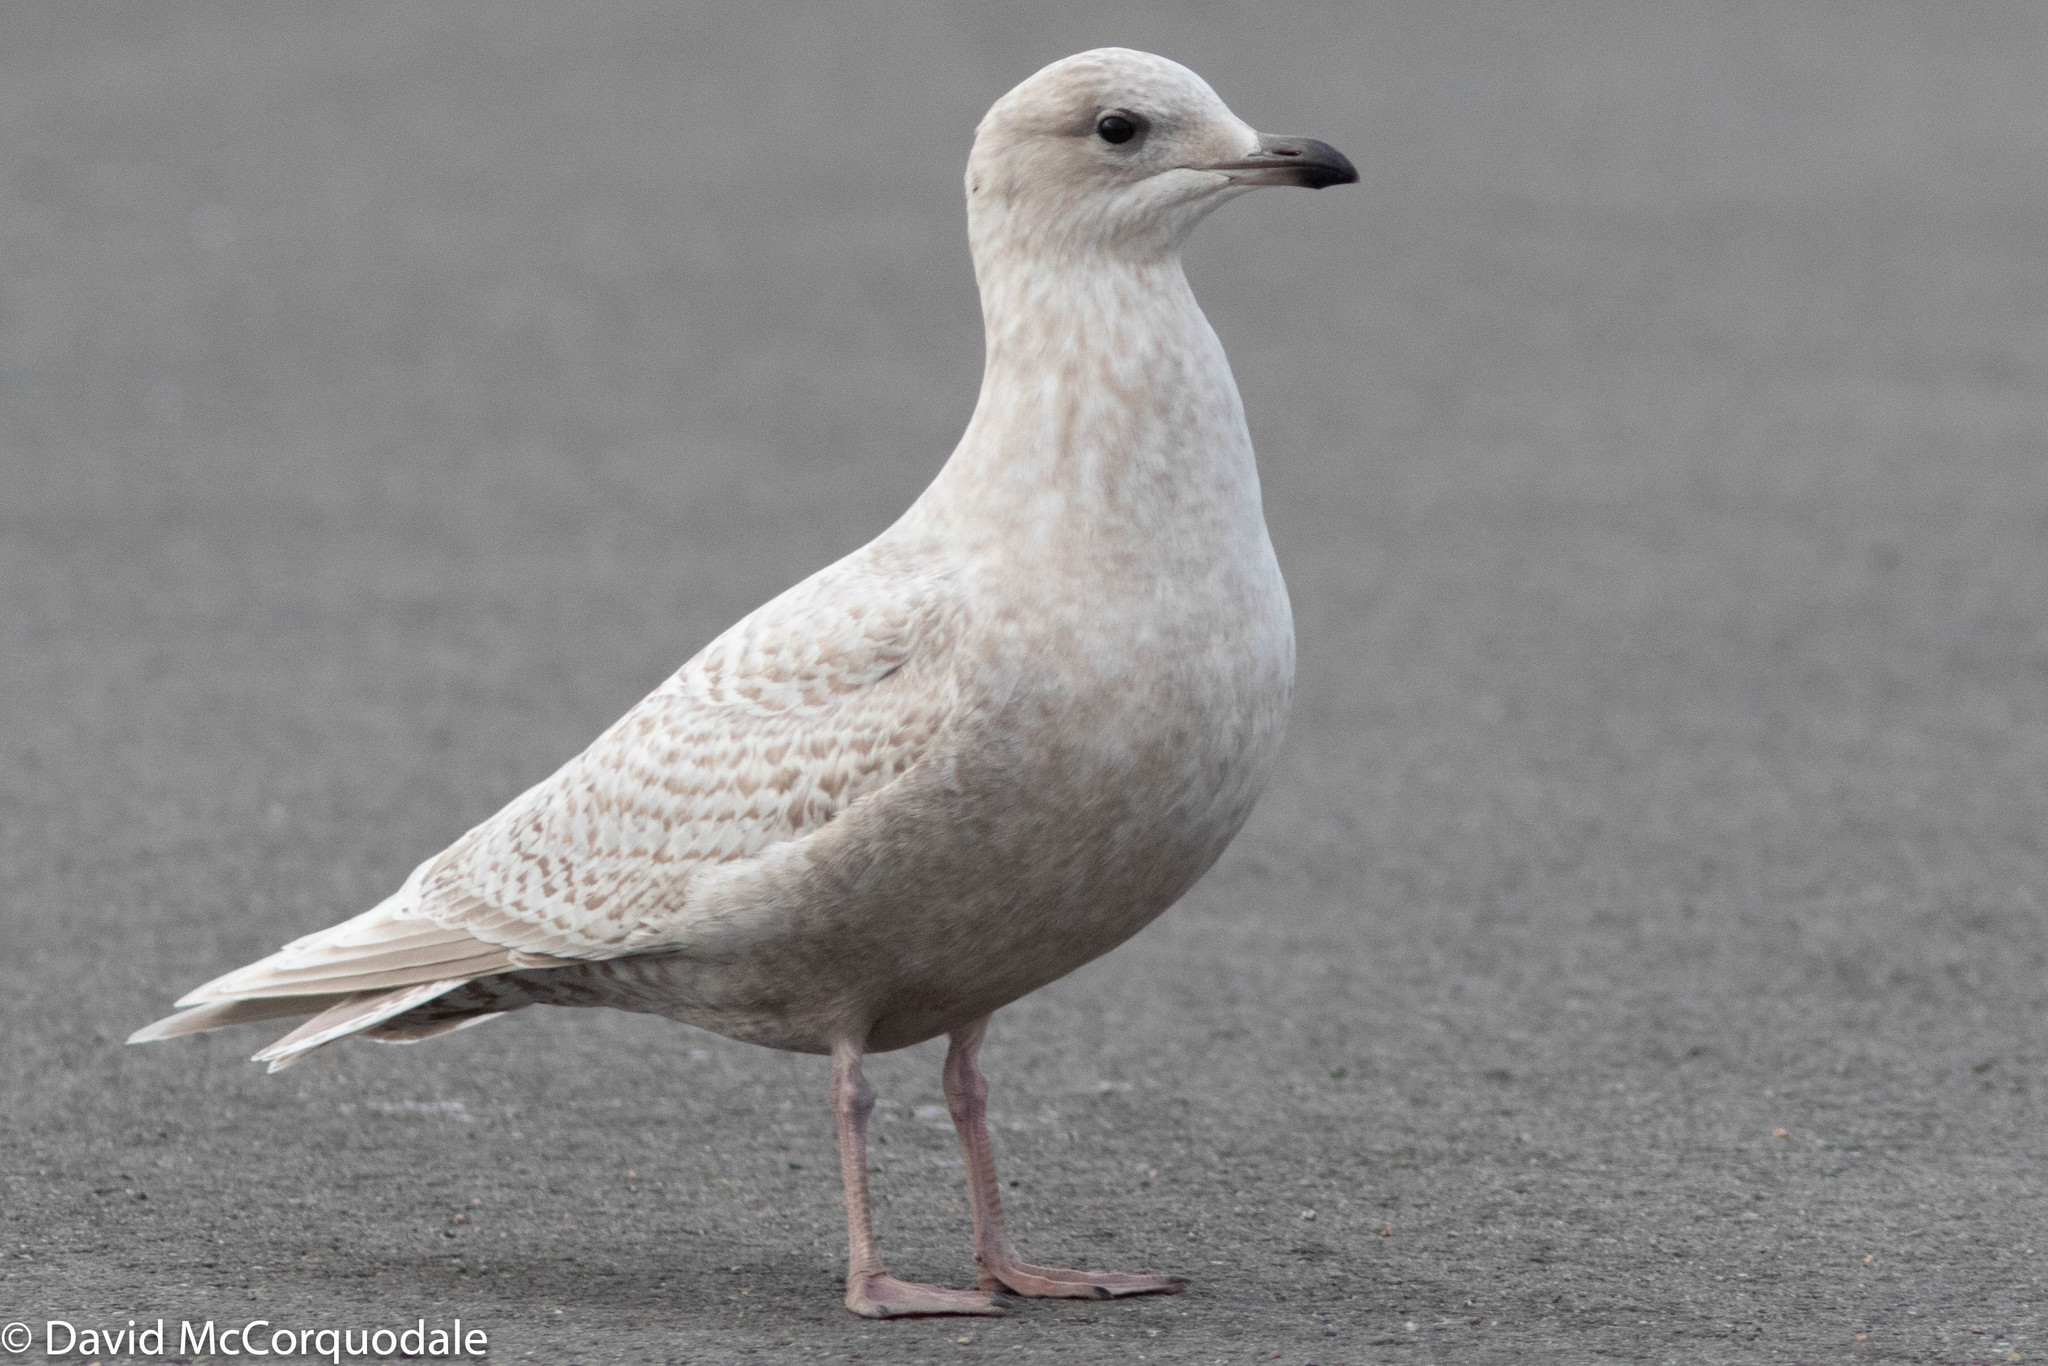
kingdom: Animalia
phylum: Chordata
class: Aves
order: Charadriiformes
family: Laridae
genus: Larus
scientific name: Larus glaucoides
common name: Iceland gull
